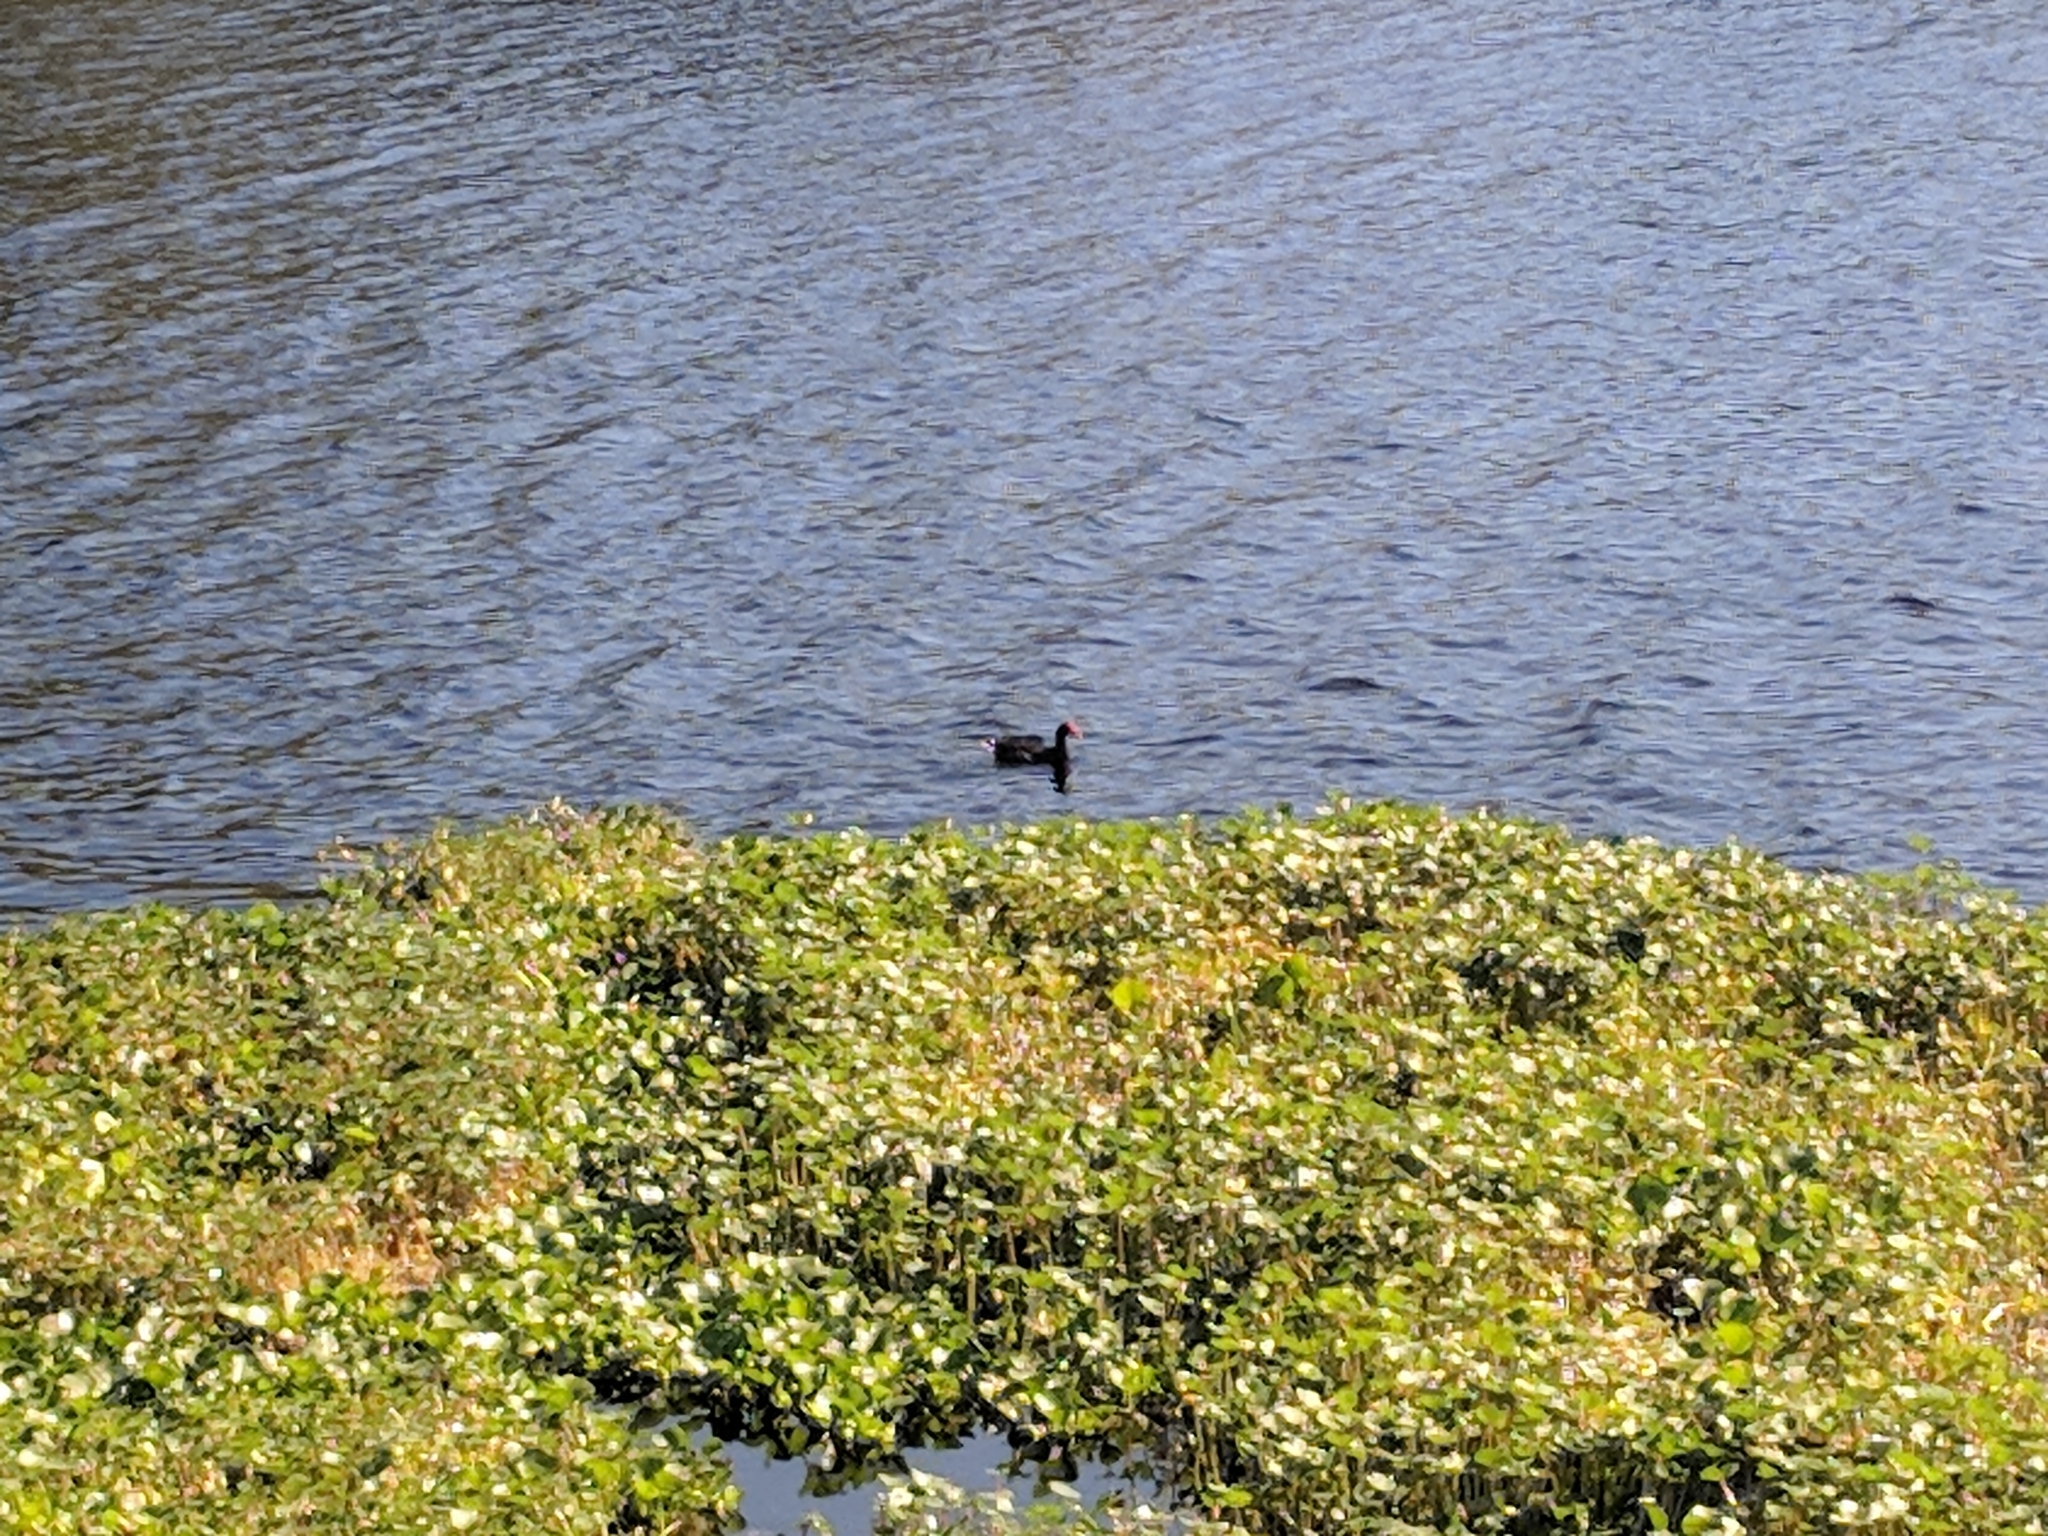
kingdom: Animalia
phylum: Chordata
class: Aves
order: Gruiformes
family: Rallidae
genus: Gallinula
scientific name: Gallinula chloropus
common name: Common moorhen
